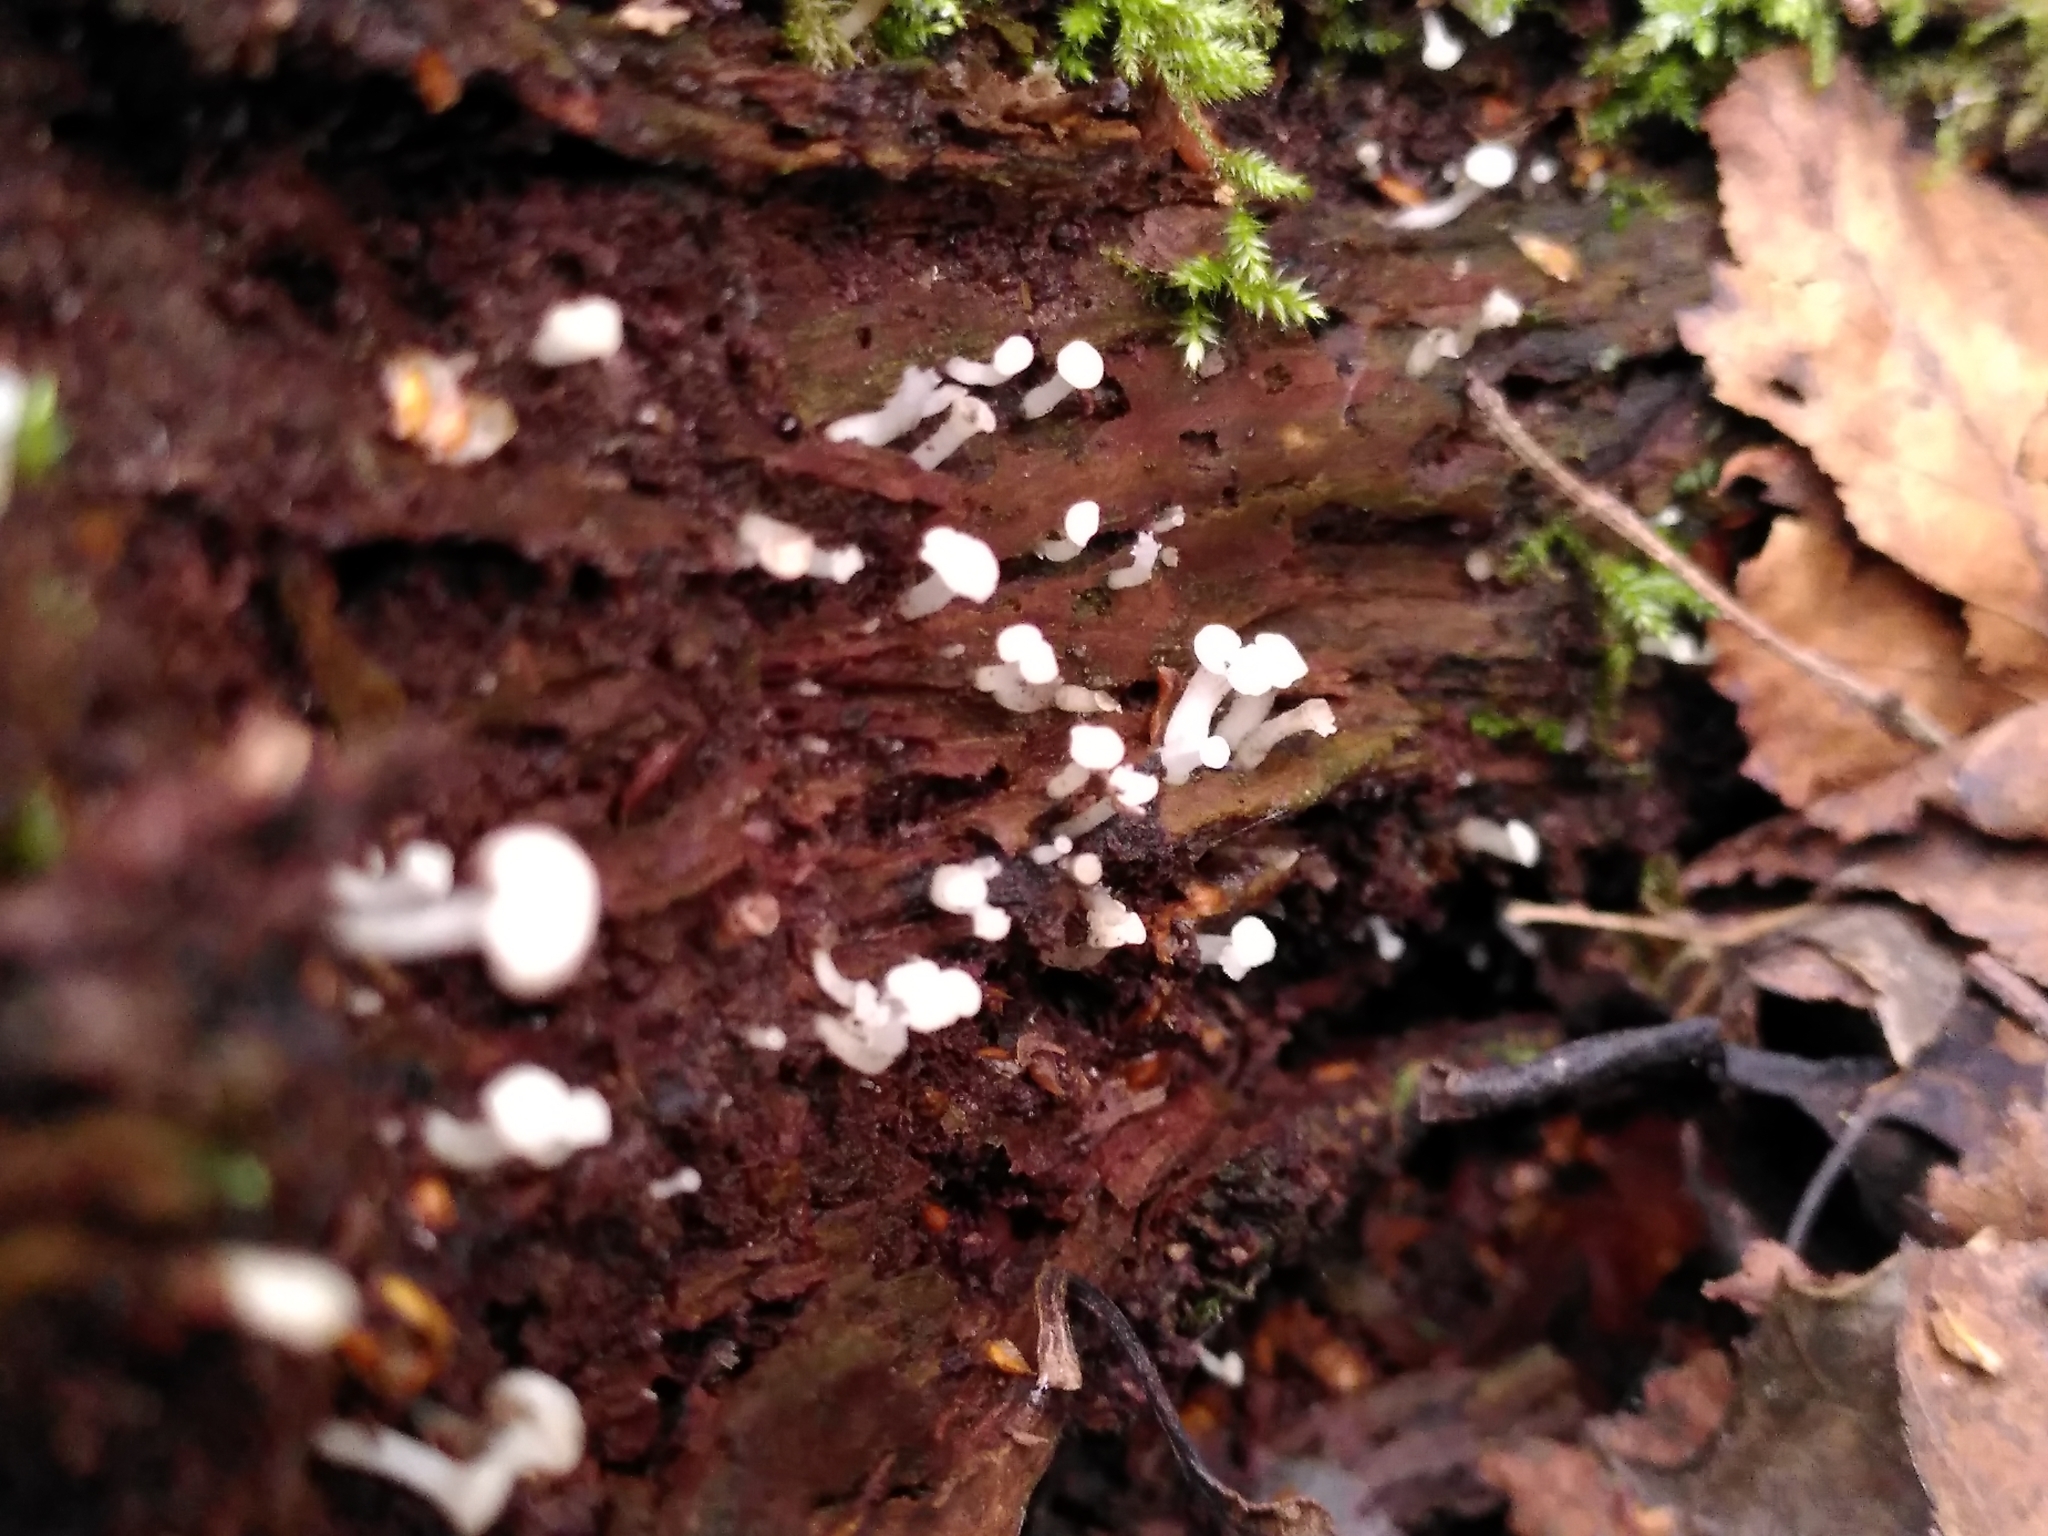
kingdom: Fungi
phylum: Ascomycota
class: Leotiomycetes
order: Helotiales
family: Tricladiaceae
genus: Cudoniella
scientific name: Cudoniella acicularis
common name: Oak pin
